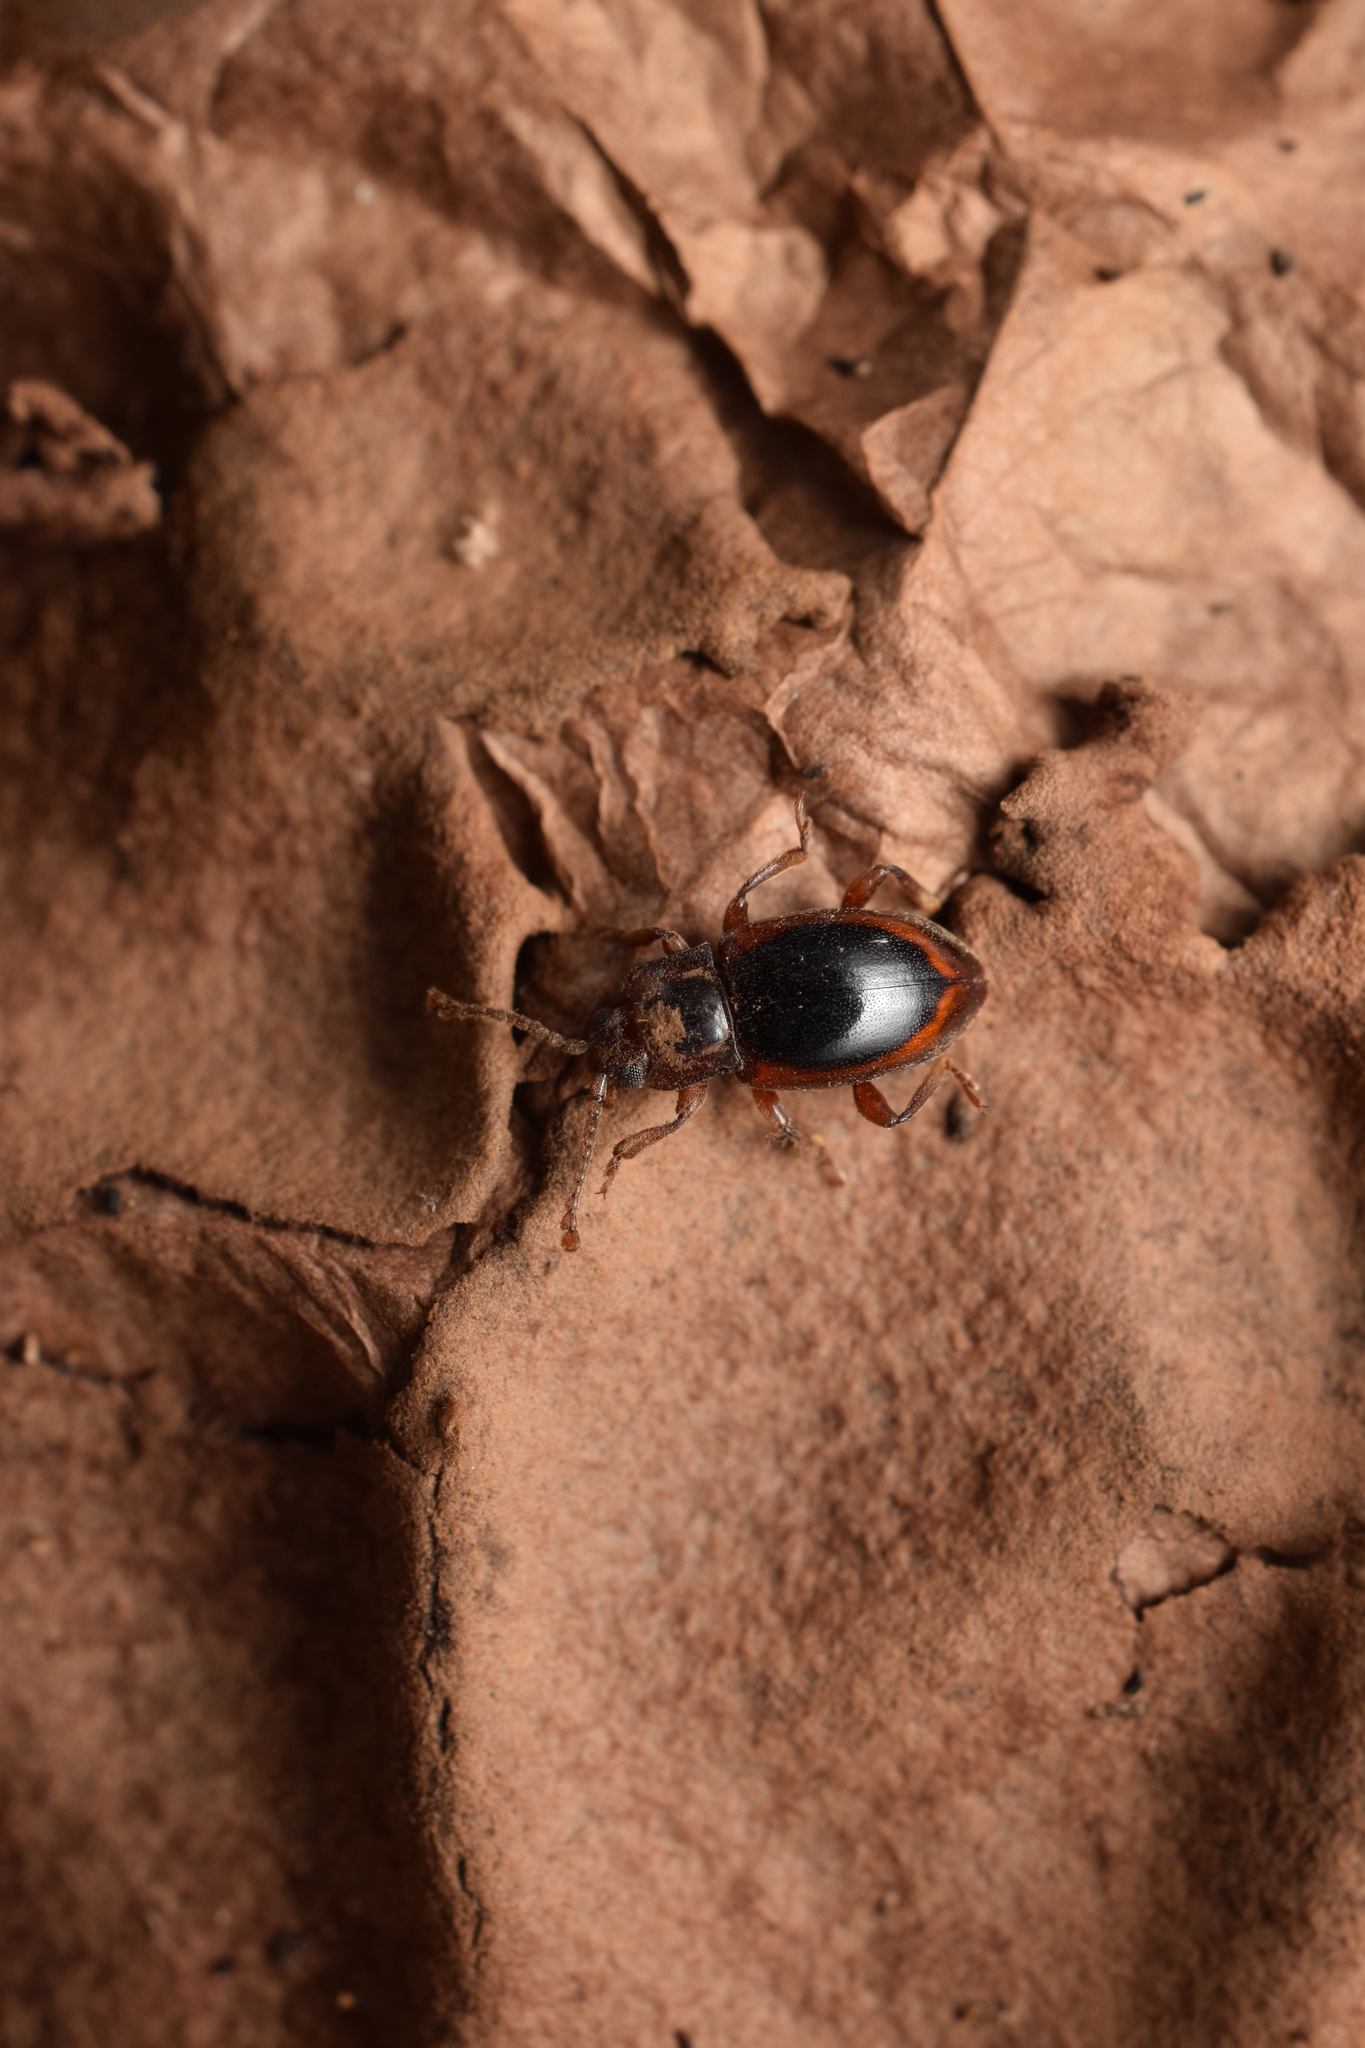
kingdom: Animalia
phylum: Arthropoda
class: Insecta
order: Coleoptera
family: Endomychidae
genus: Lycoperdina
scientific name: Lycoperdina mandarinea
